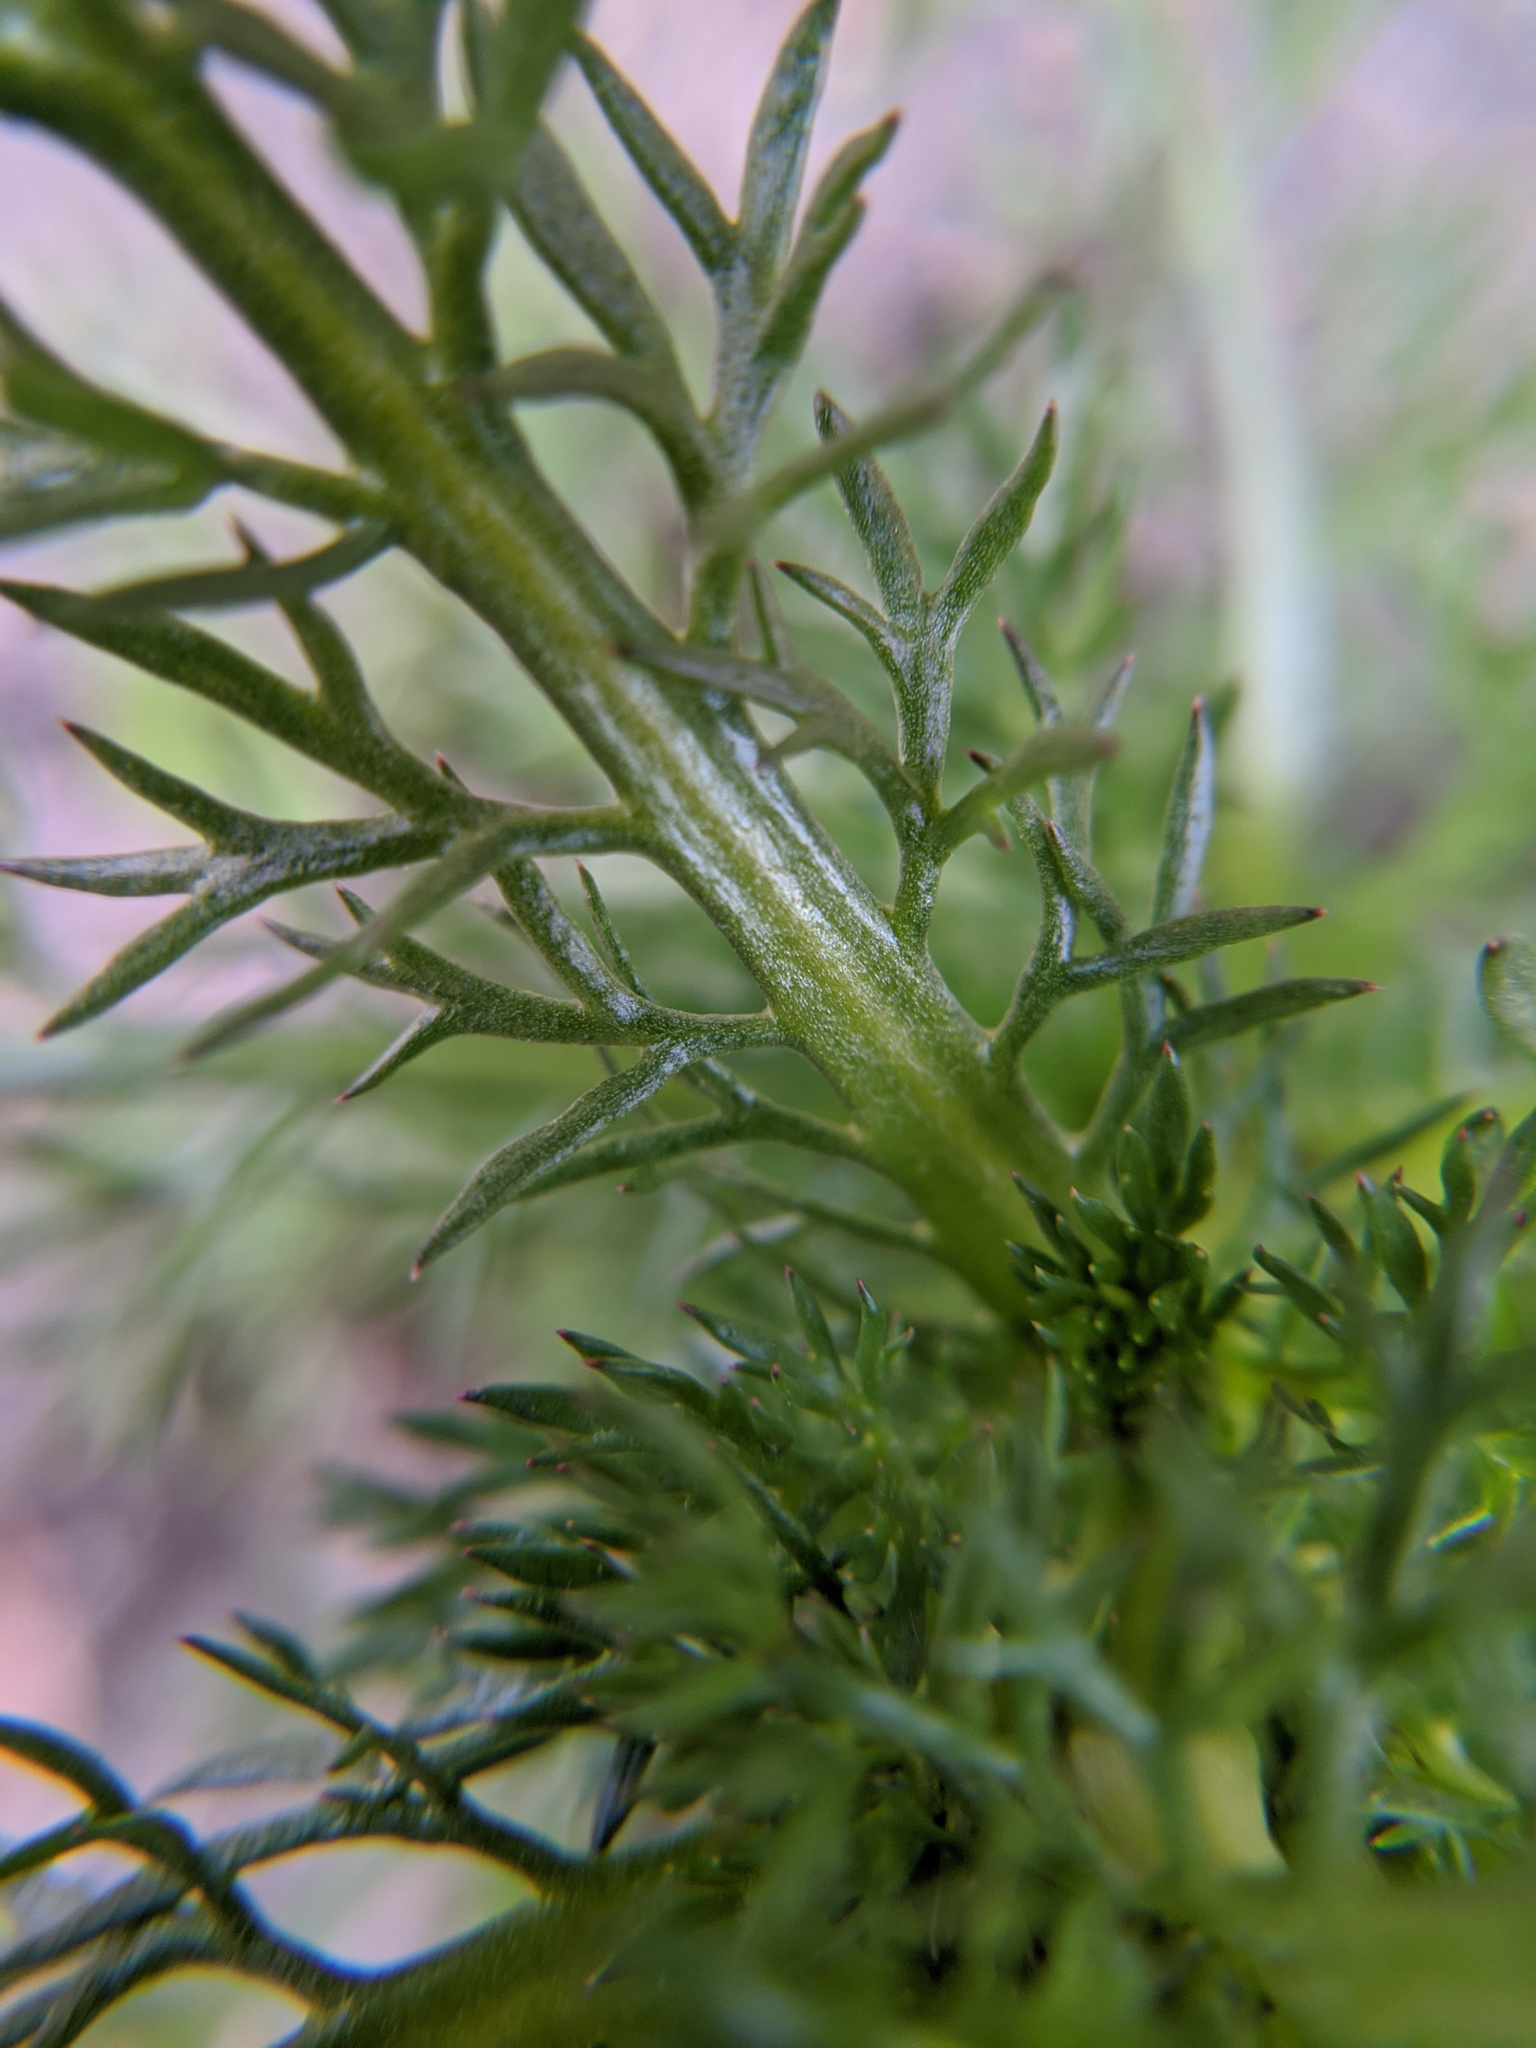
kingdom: Plantae
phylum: Tracheophyta
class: Magnoliopsida
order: Asterales
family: Asteraceae
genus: Matricaria
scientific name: Matricaria discoidea
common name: Disc mayweed
